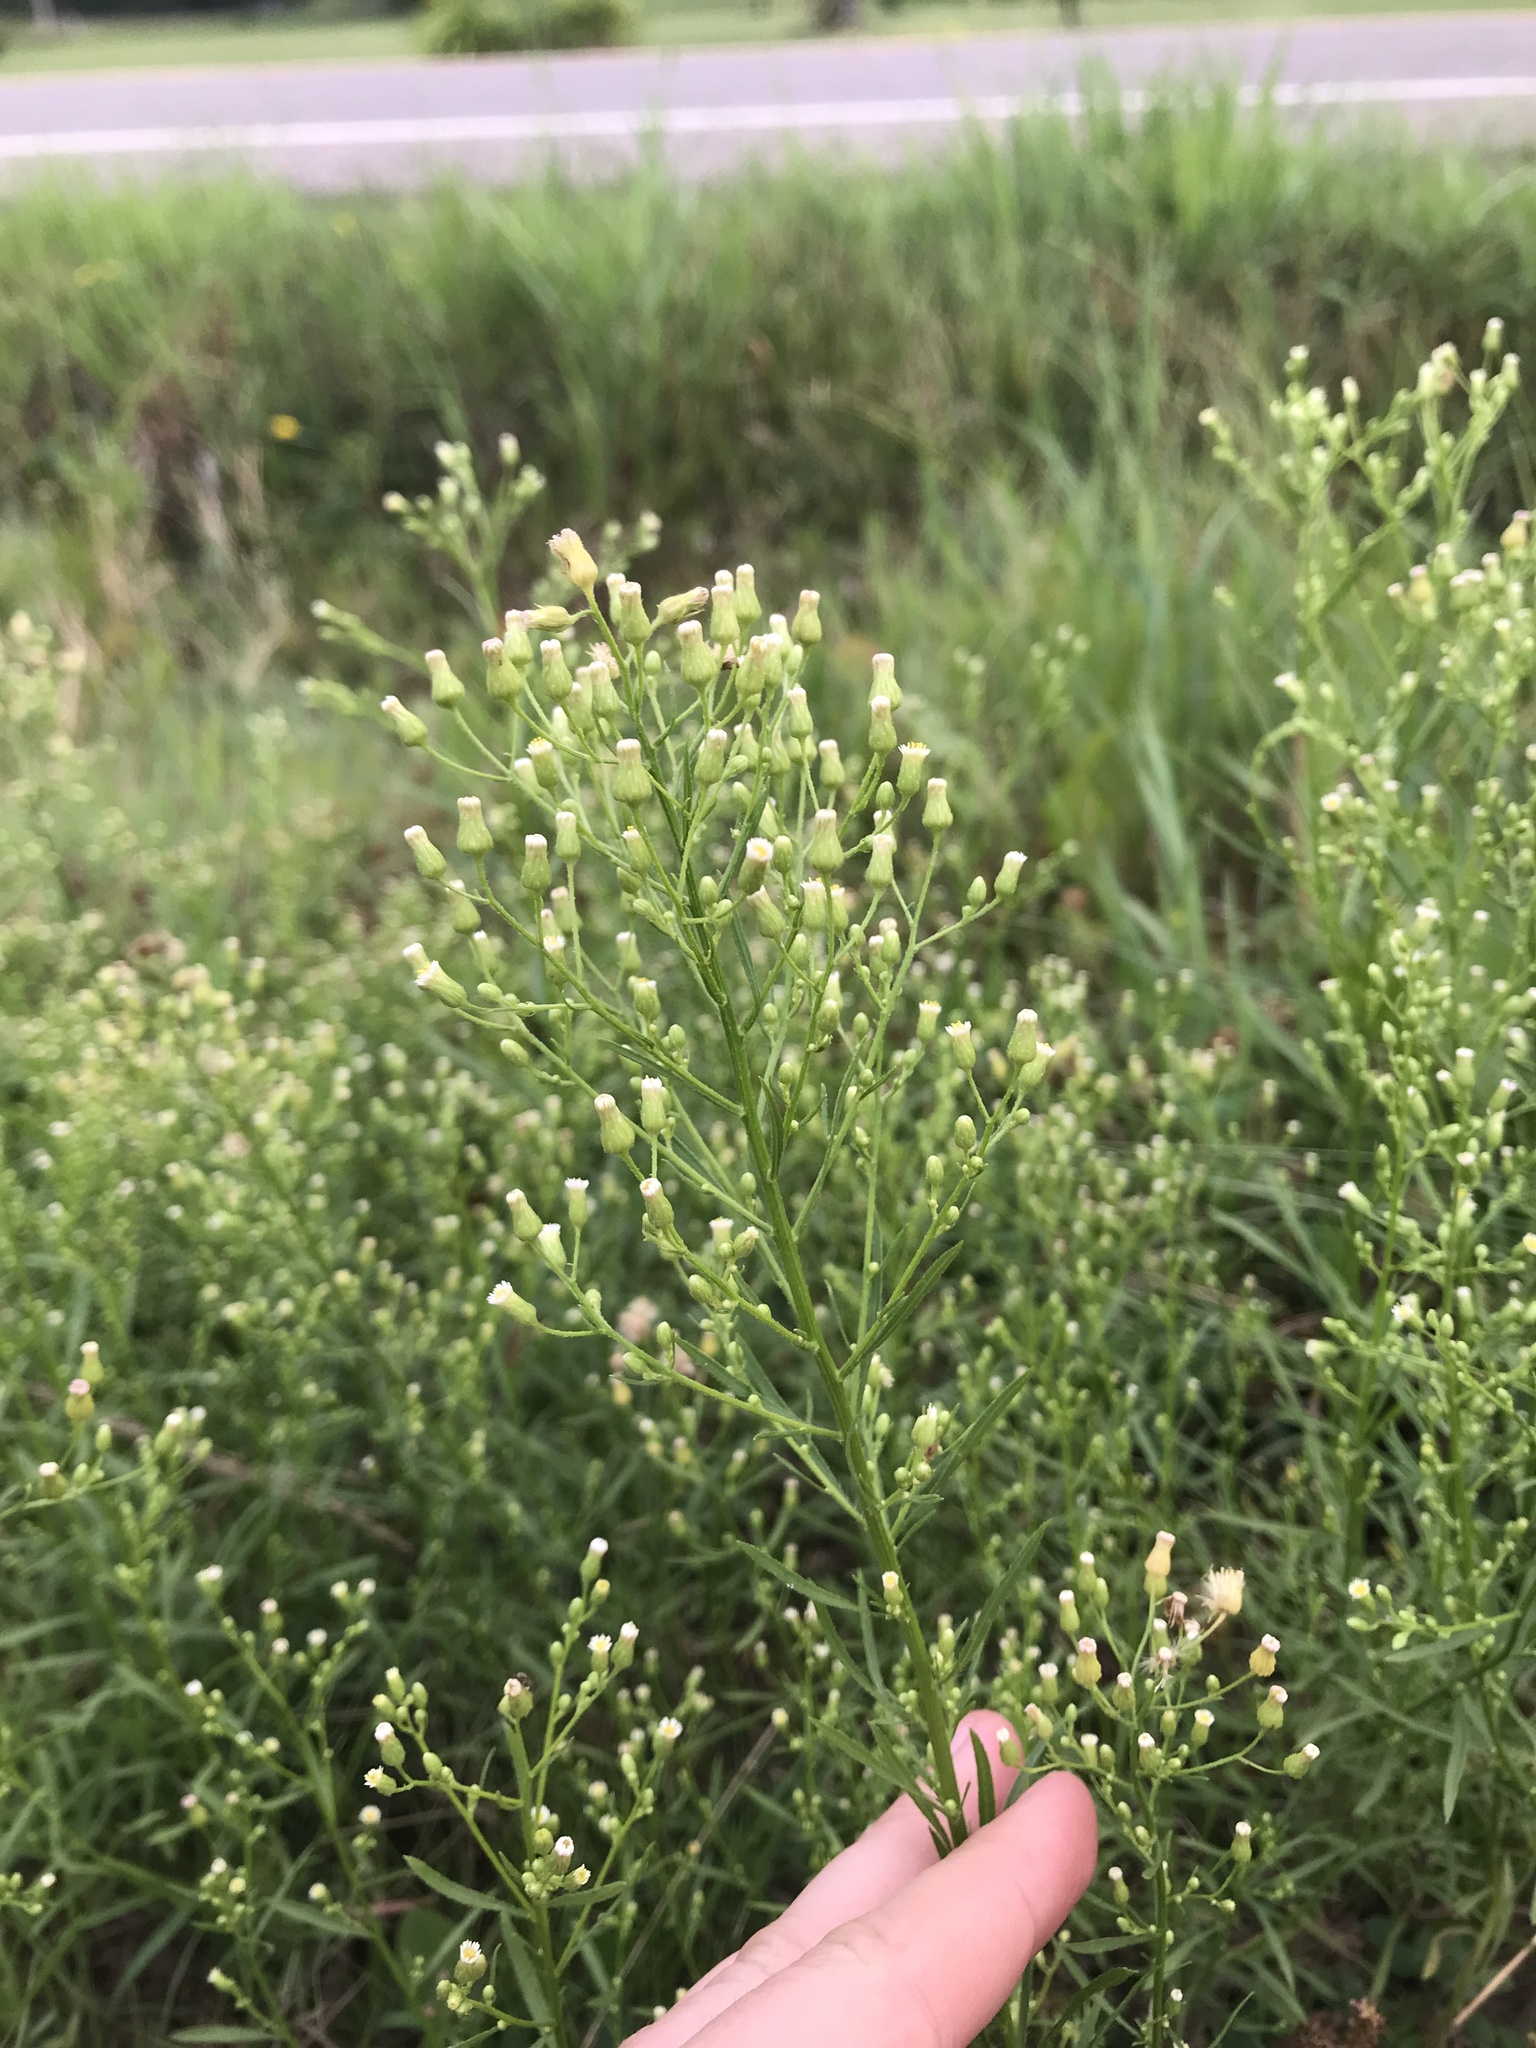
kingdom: Plantae
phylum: Tracheophyta
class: Magnoliopsida
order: Asterales
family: Asteraceae
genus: Erigeron
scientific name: Erigeron canadensis
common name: Canadian fleabane
